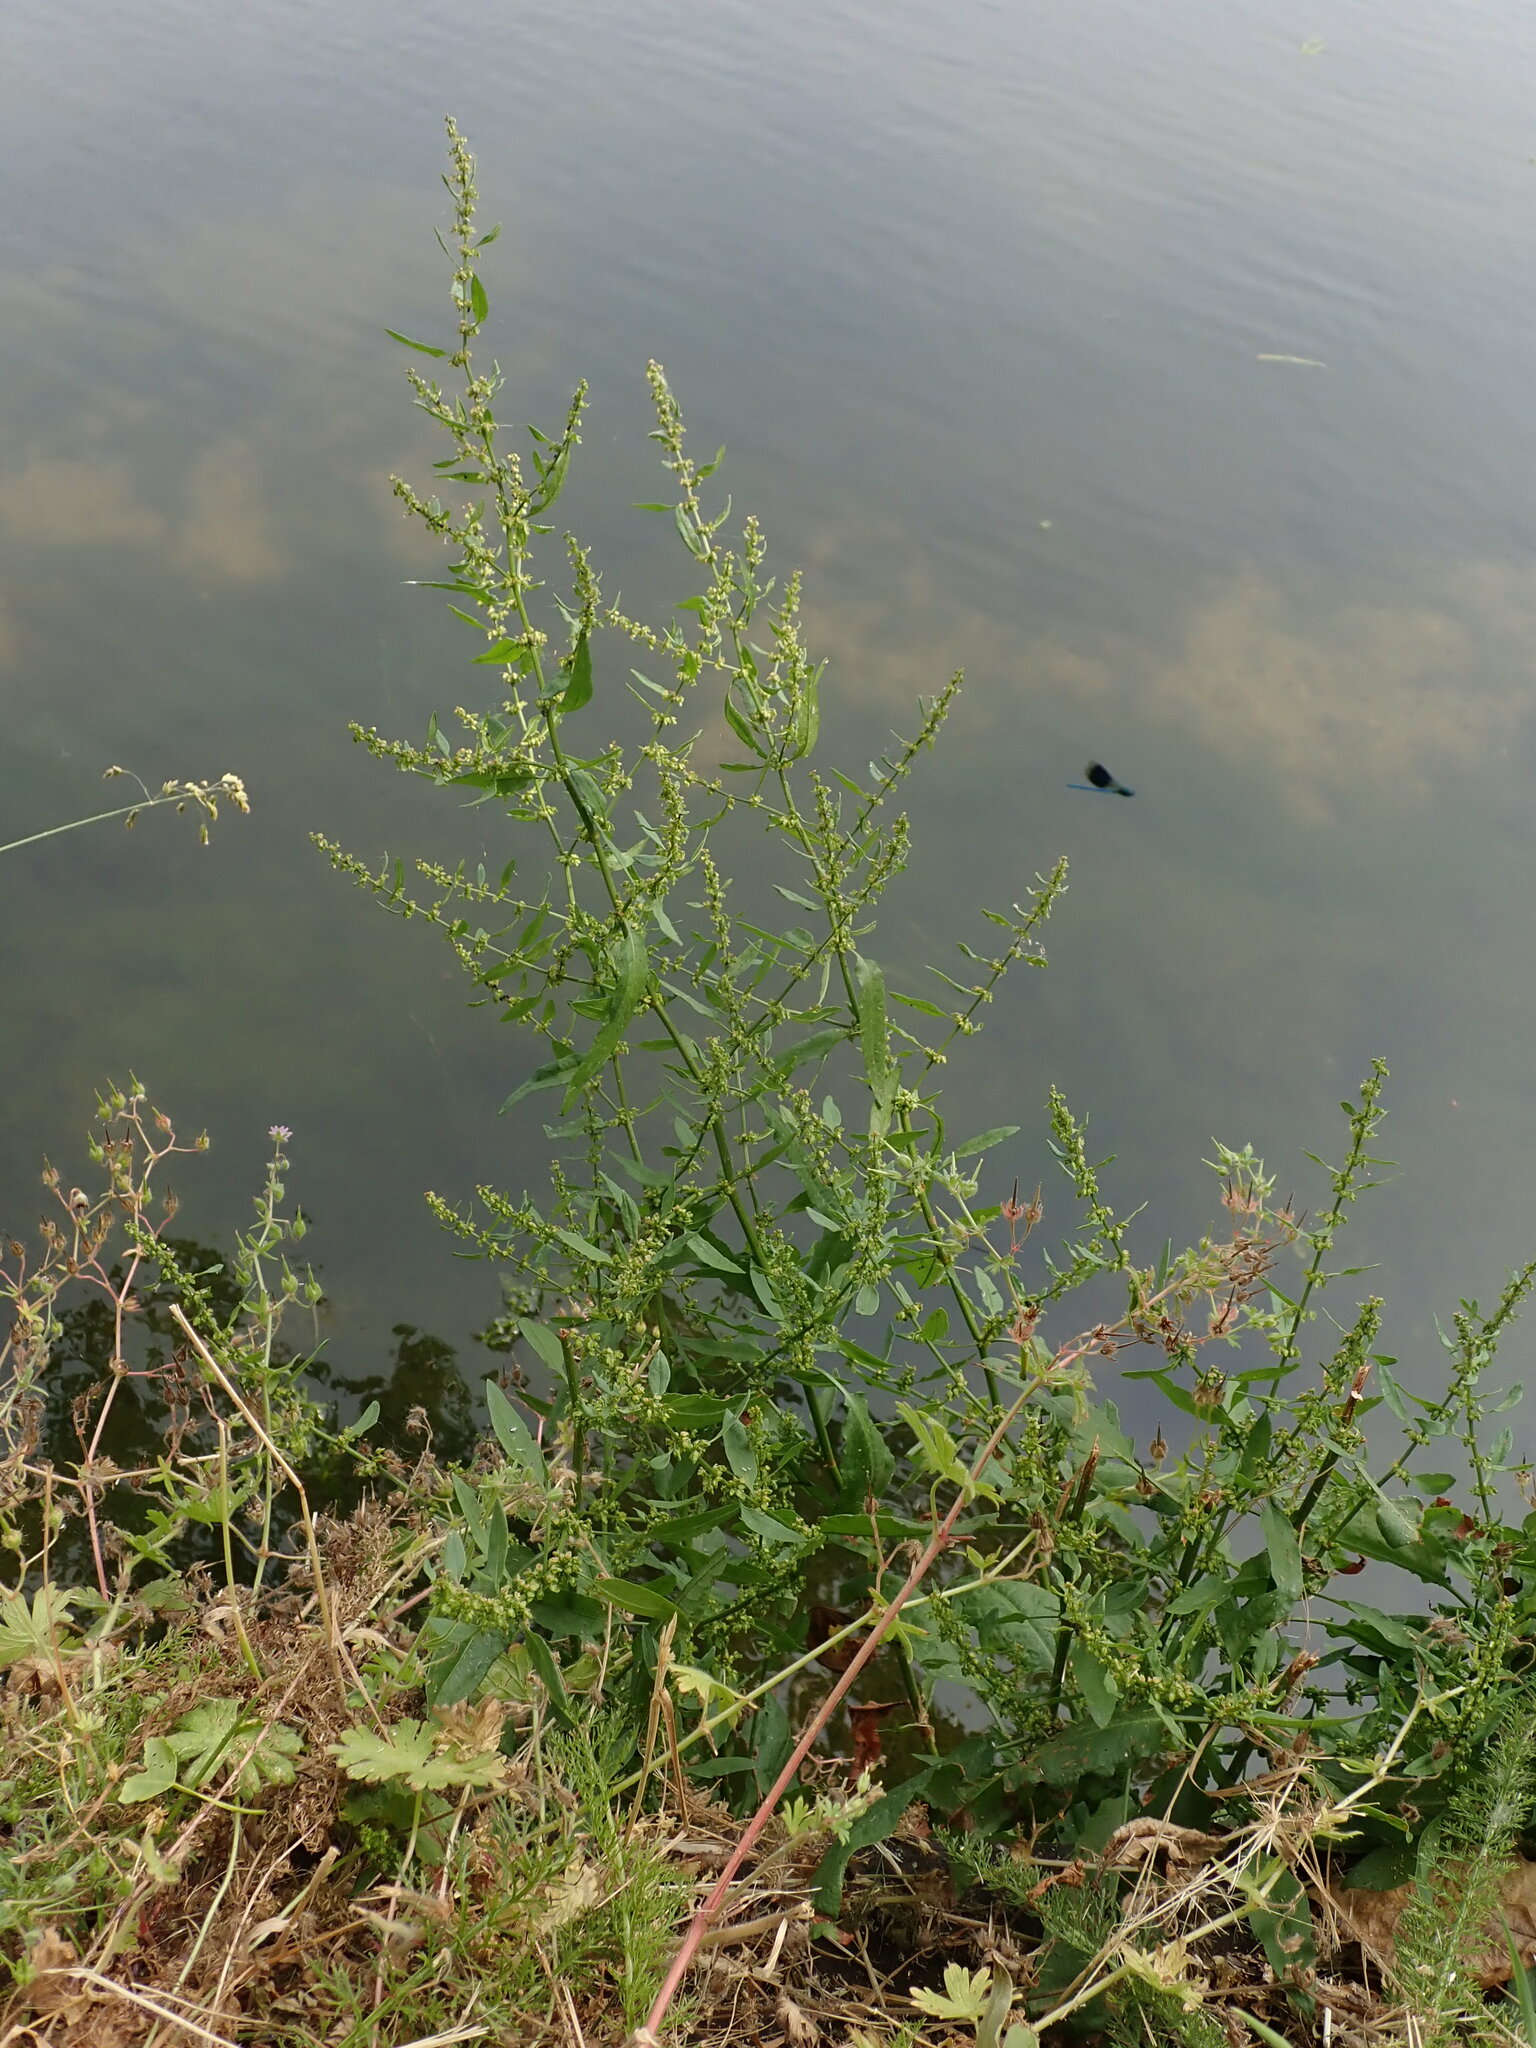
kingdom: Plantae
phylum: Tracheophyta
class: Magnoliopsida
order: Caryophyllales
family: Polygonaceae
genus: Rumex
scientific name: Rumex conglomeratus
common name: Clustered dock
